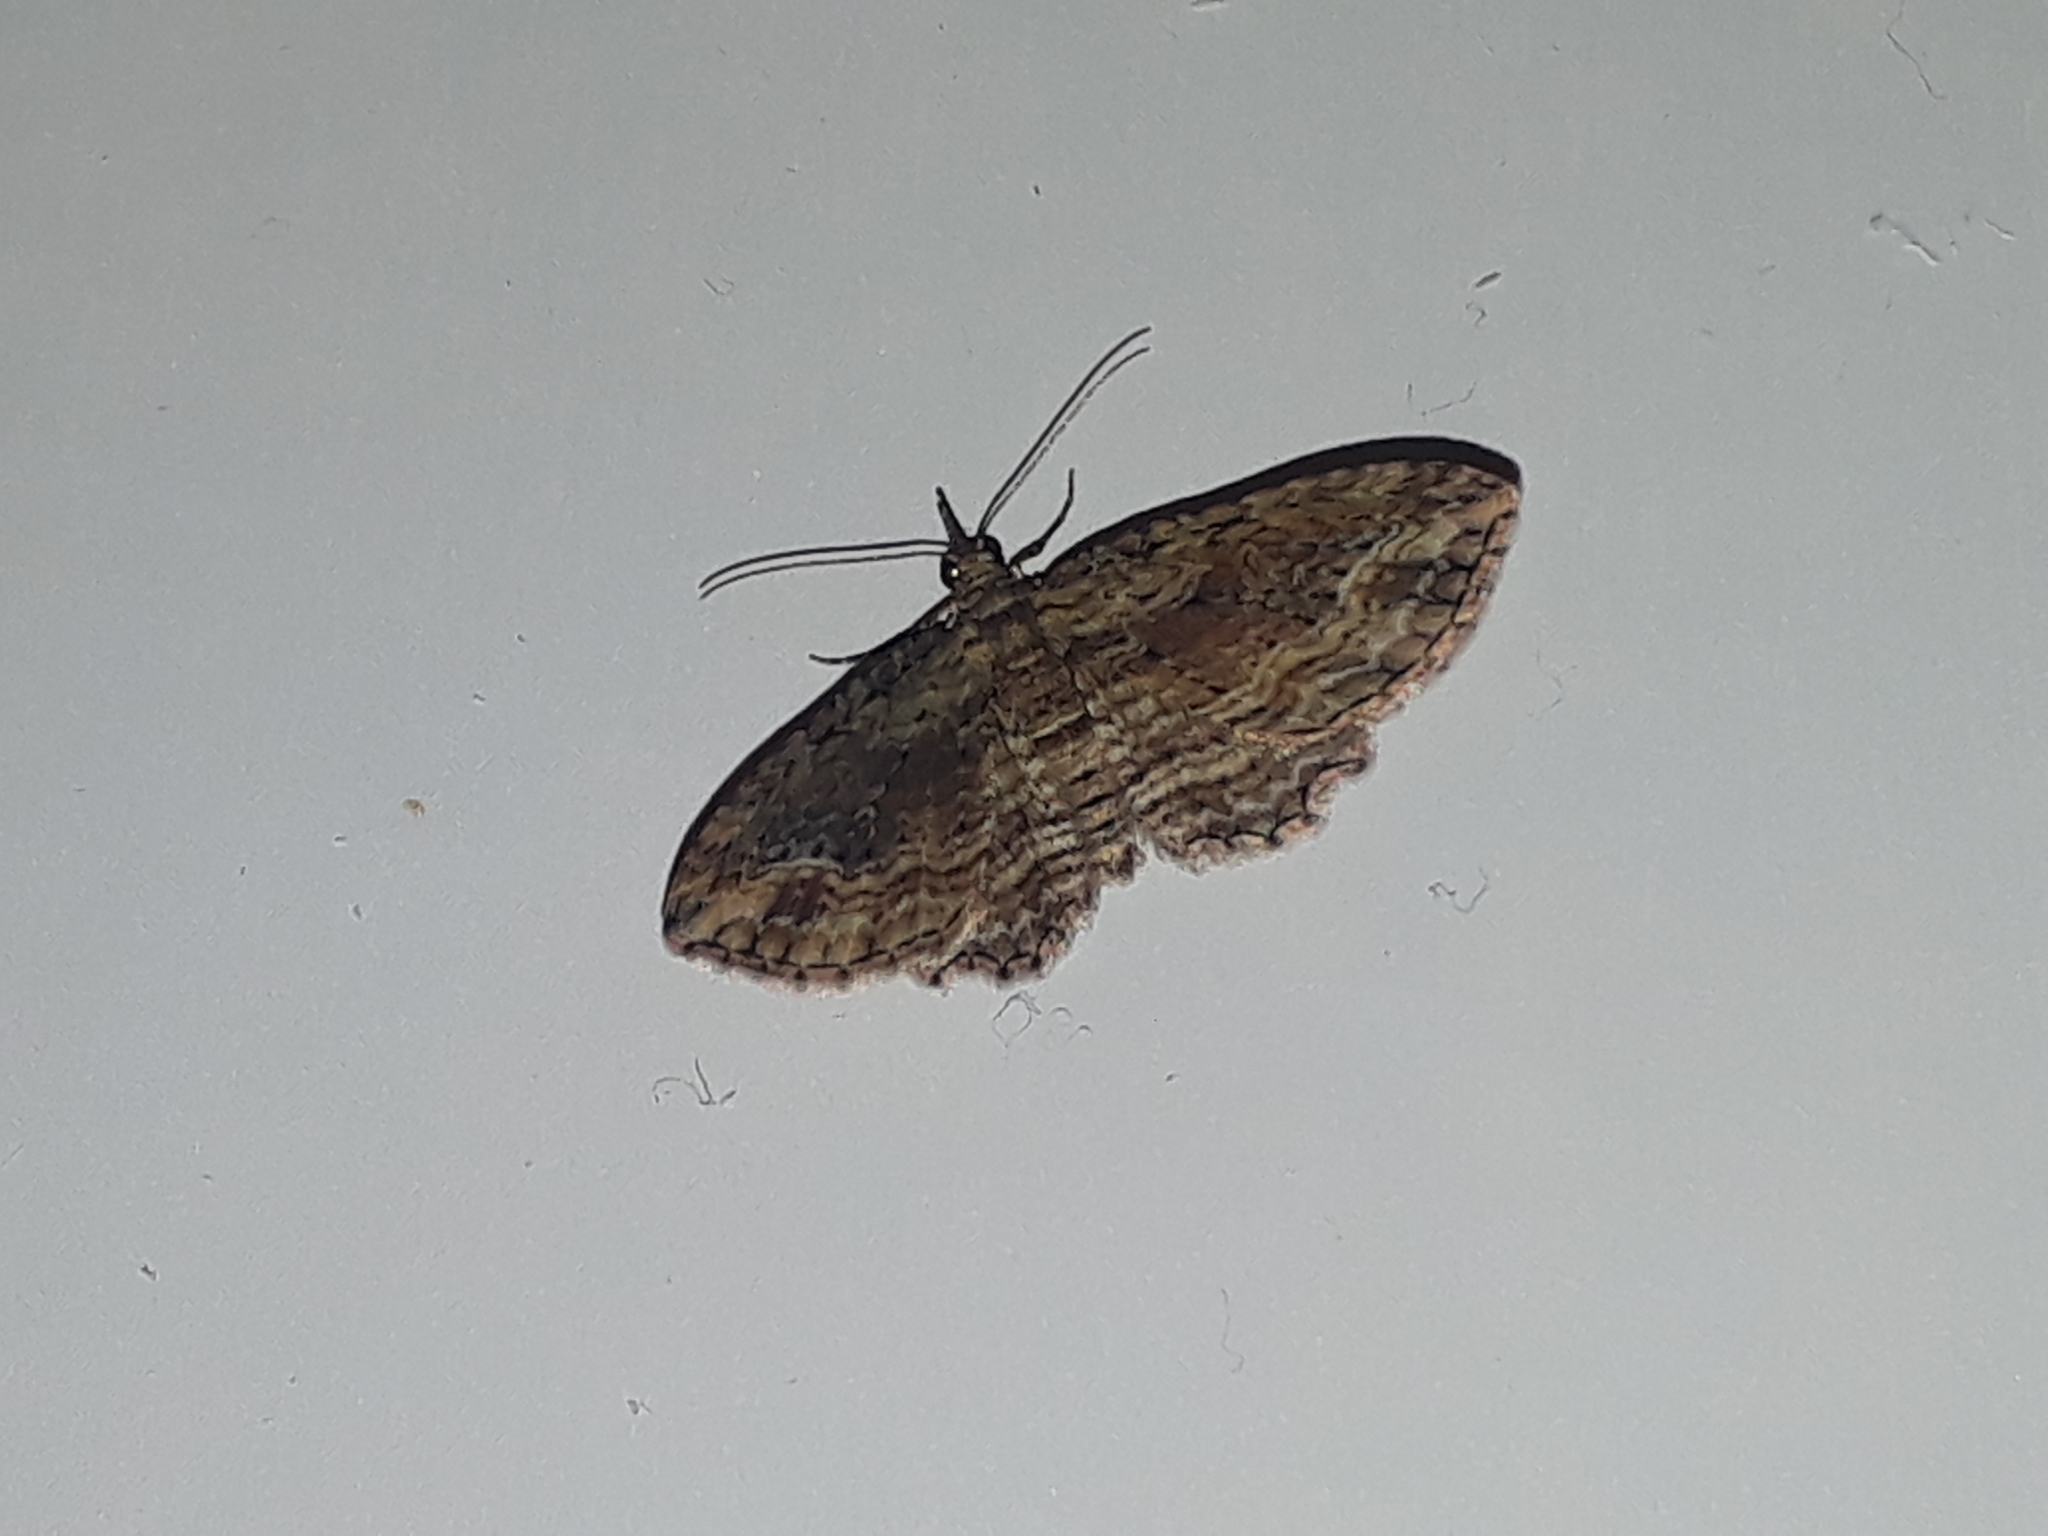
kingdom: Animalia
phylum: Arthropoda
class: Insecta
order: Lepidoptera
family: Geometridae
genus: Chloroclystis
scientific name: Chloroclystis filata
